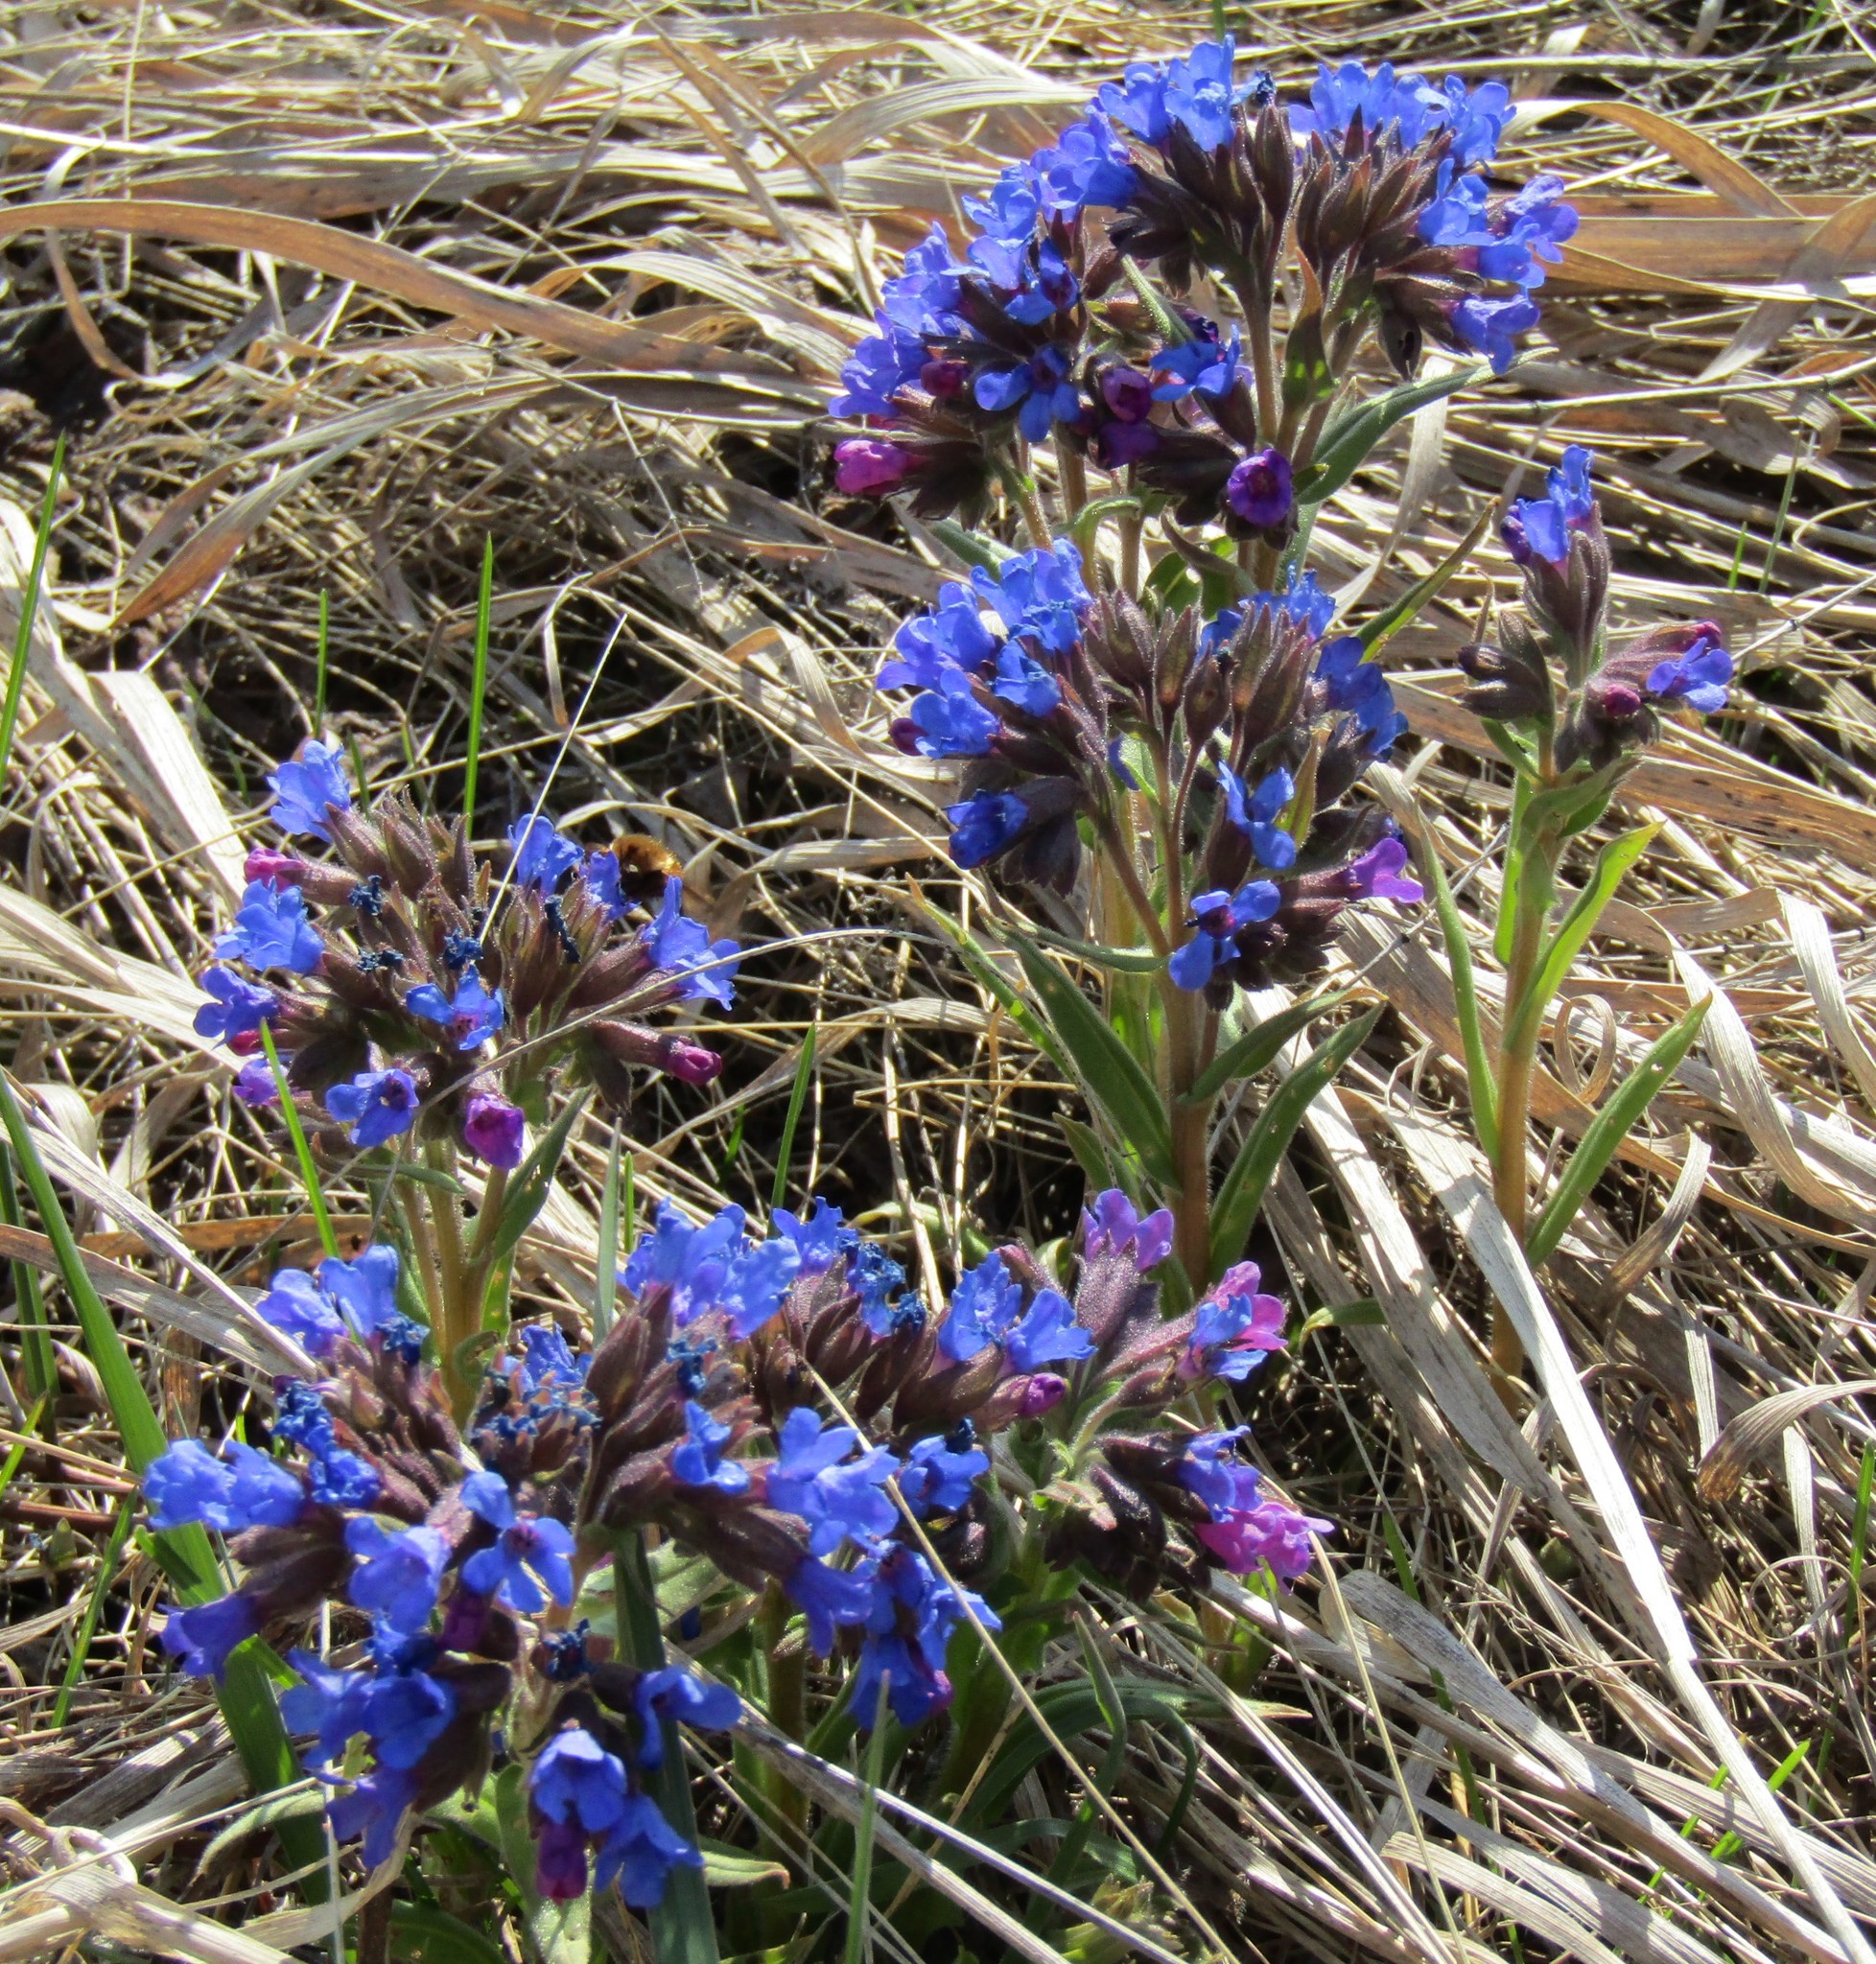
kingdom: Plantae
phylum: Tracheophyta
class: Magnoliopsida
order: Boraginales
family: Boraginaceae
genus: Pulmonaria
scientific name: Pulmonaria angustifolia
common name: Blue cowslip
